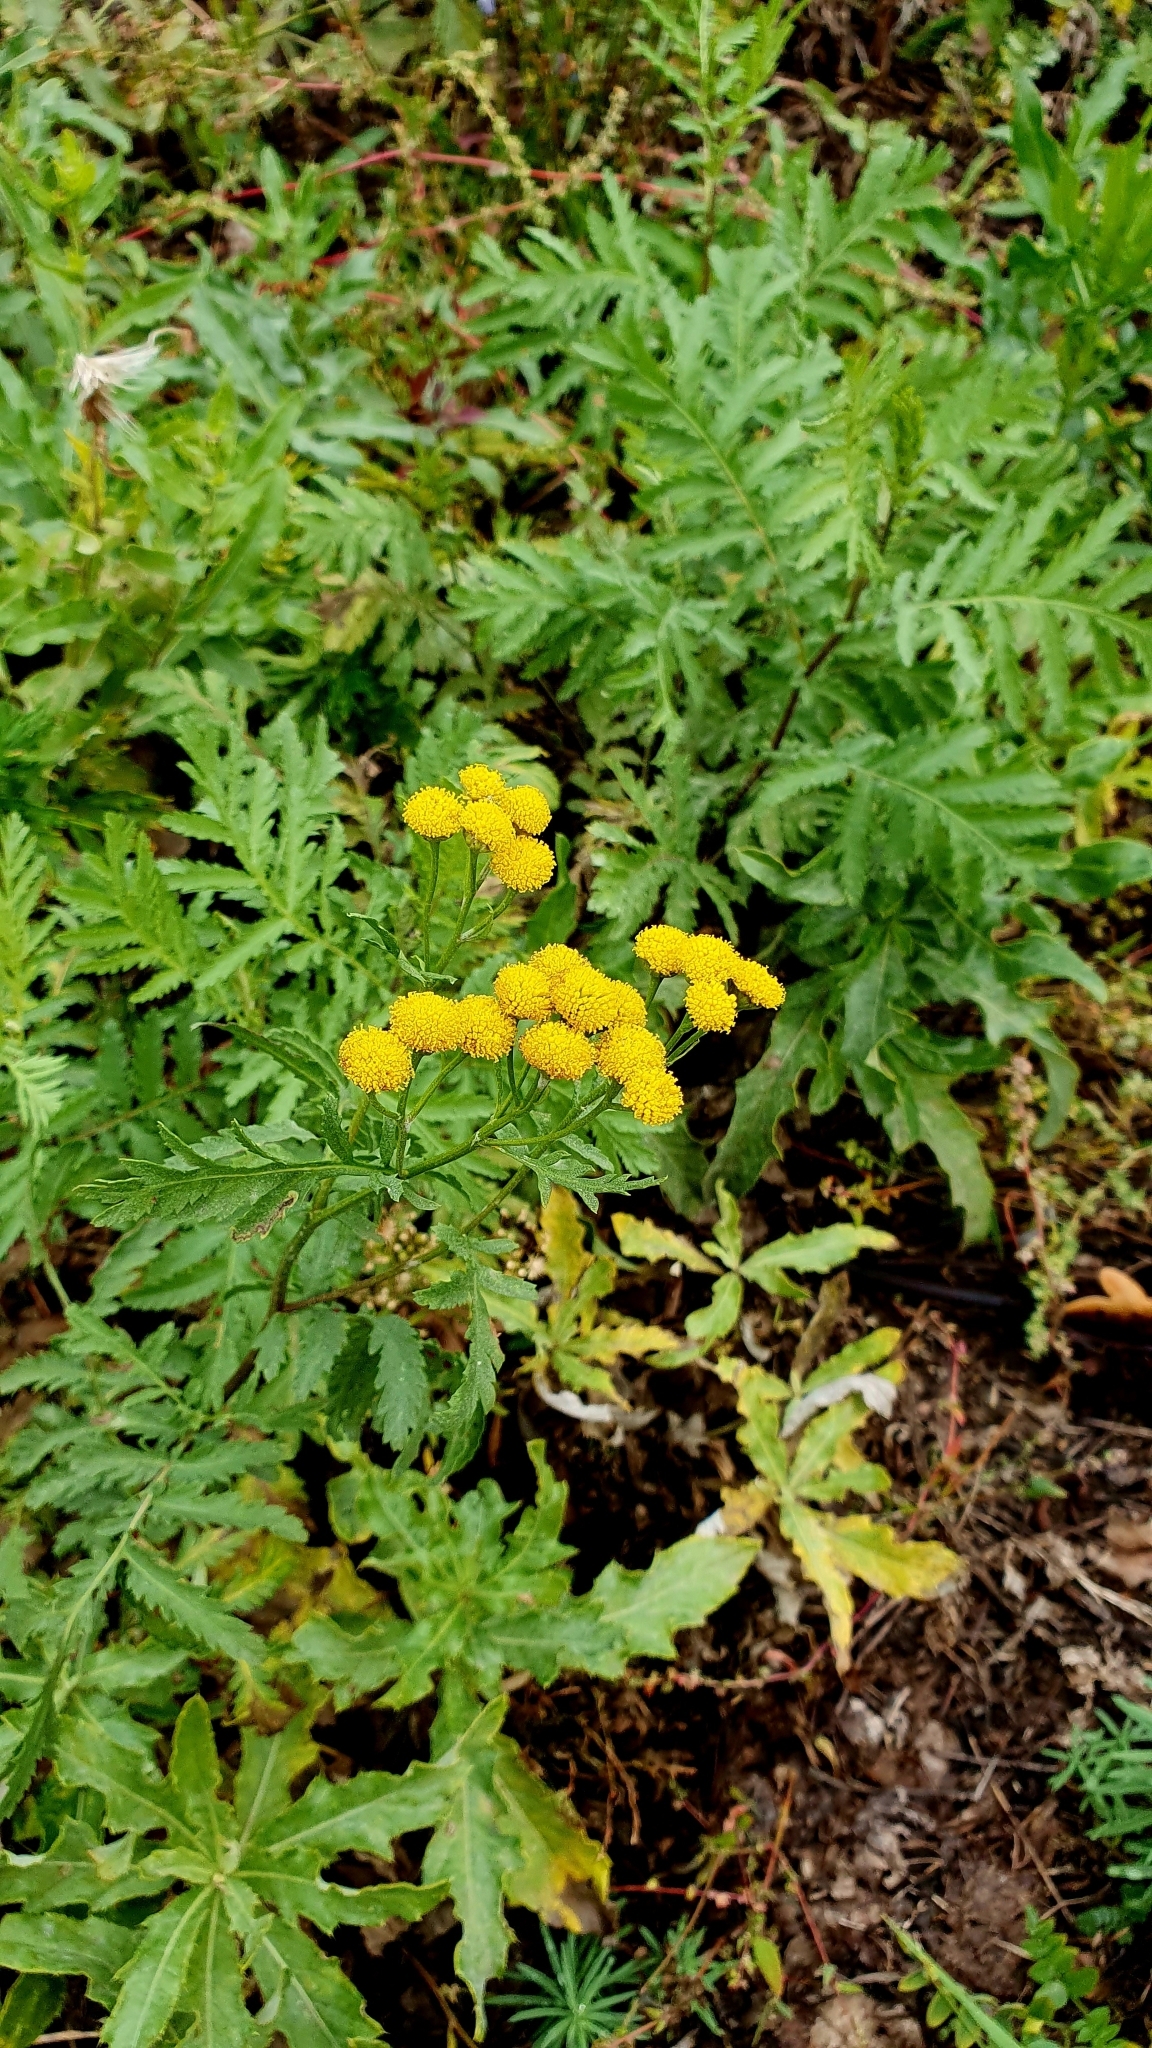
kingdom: Plantae
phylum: Tracheophyta
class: Magnoliopsida
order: Asterales
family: Asteraceae
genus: Tanacetum
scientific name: Tanacetum vulgare
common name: Common tansy
